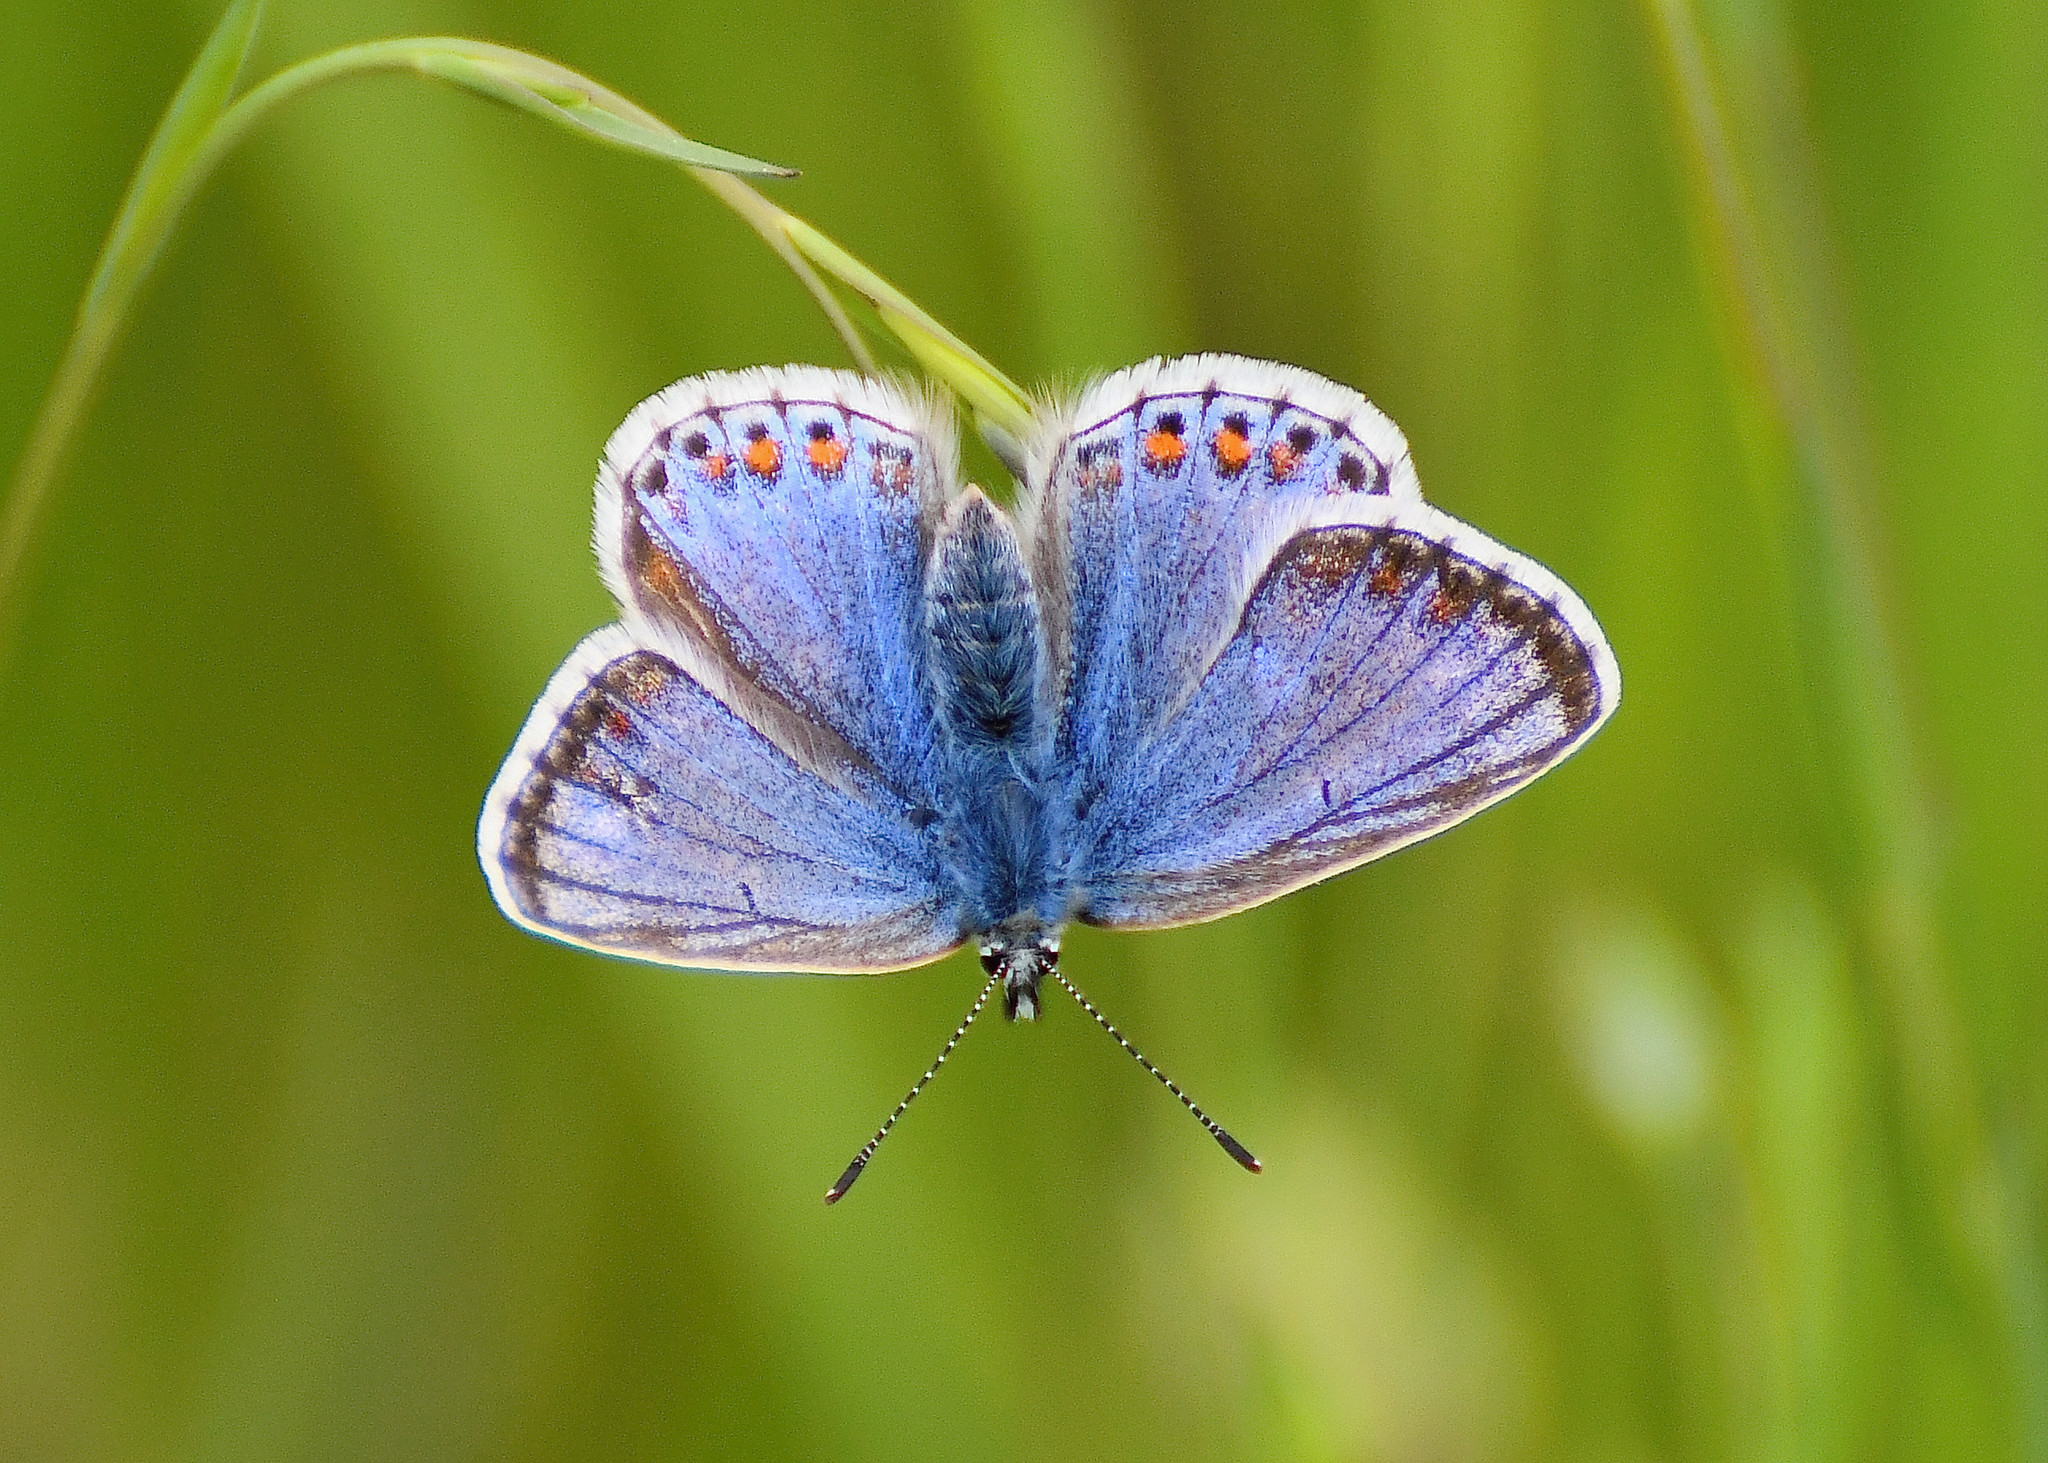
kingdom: Animalia
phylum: Arthropoda
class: Insecta
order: Lepidoptera
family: Lycaenidae
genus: Polyommatus
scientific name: Polyommatus icarus
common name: Common blue
